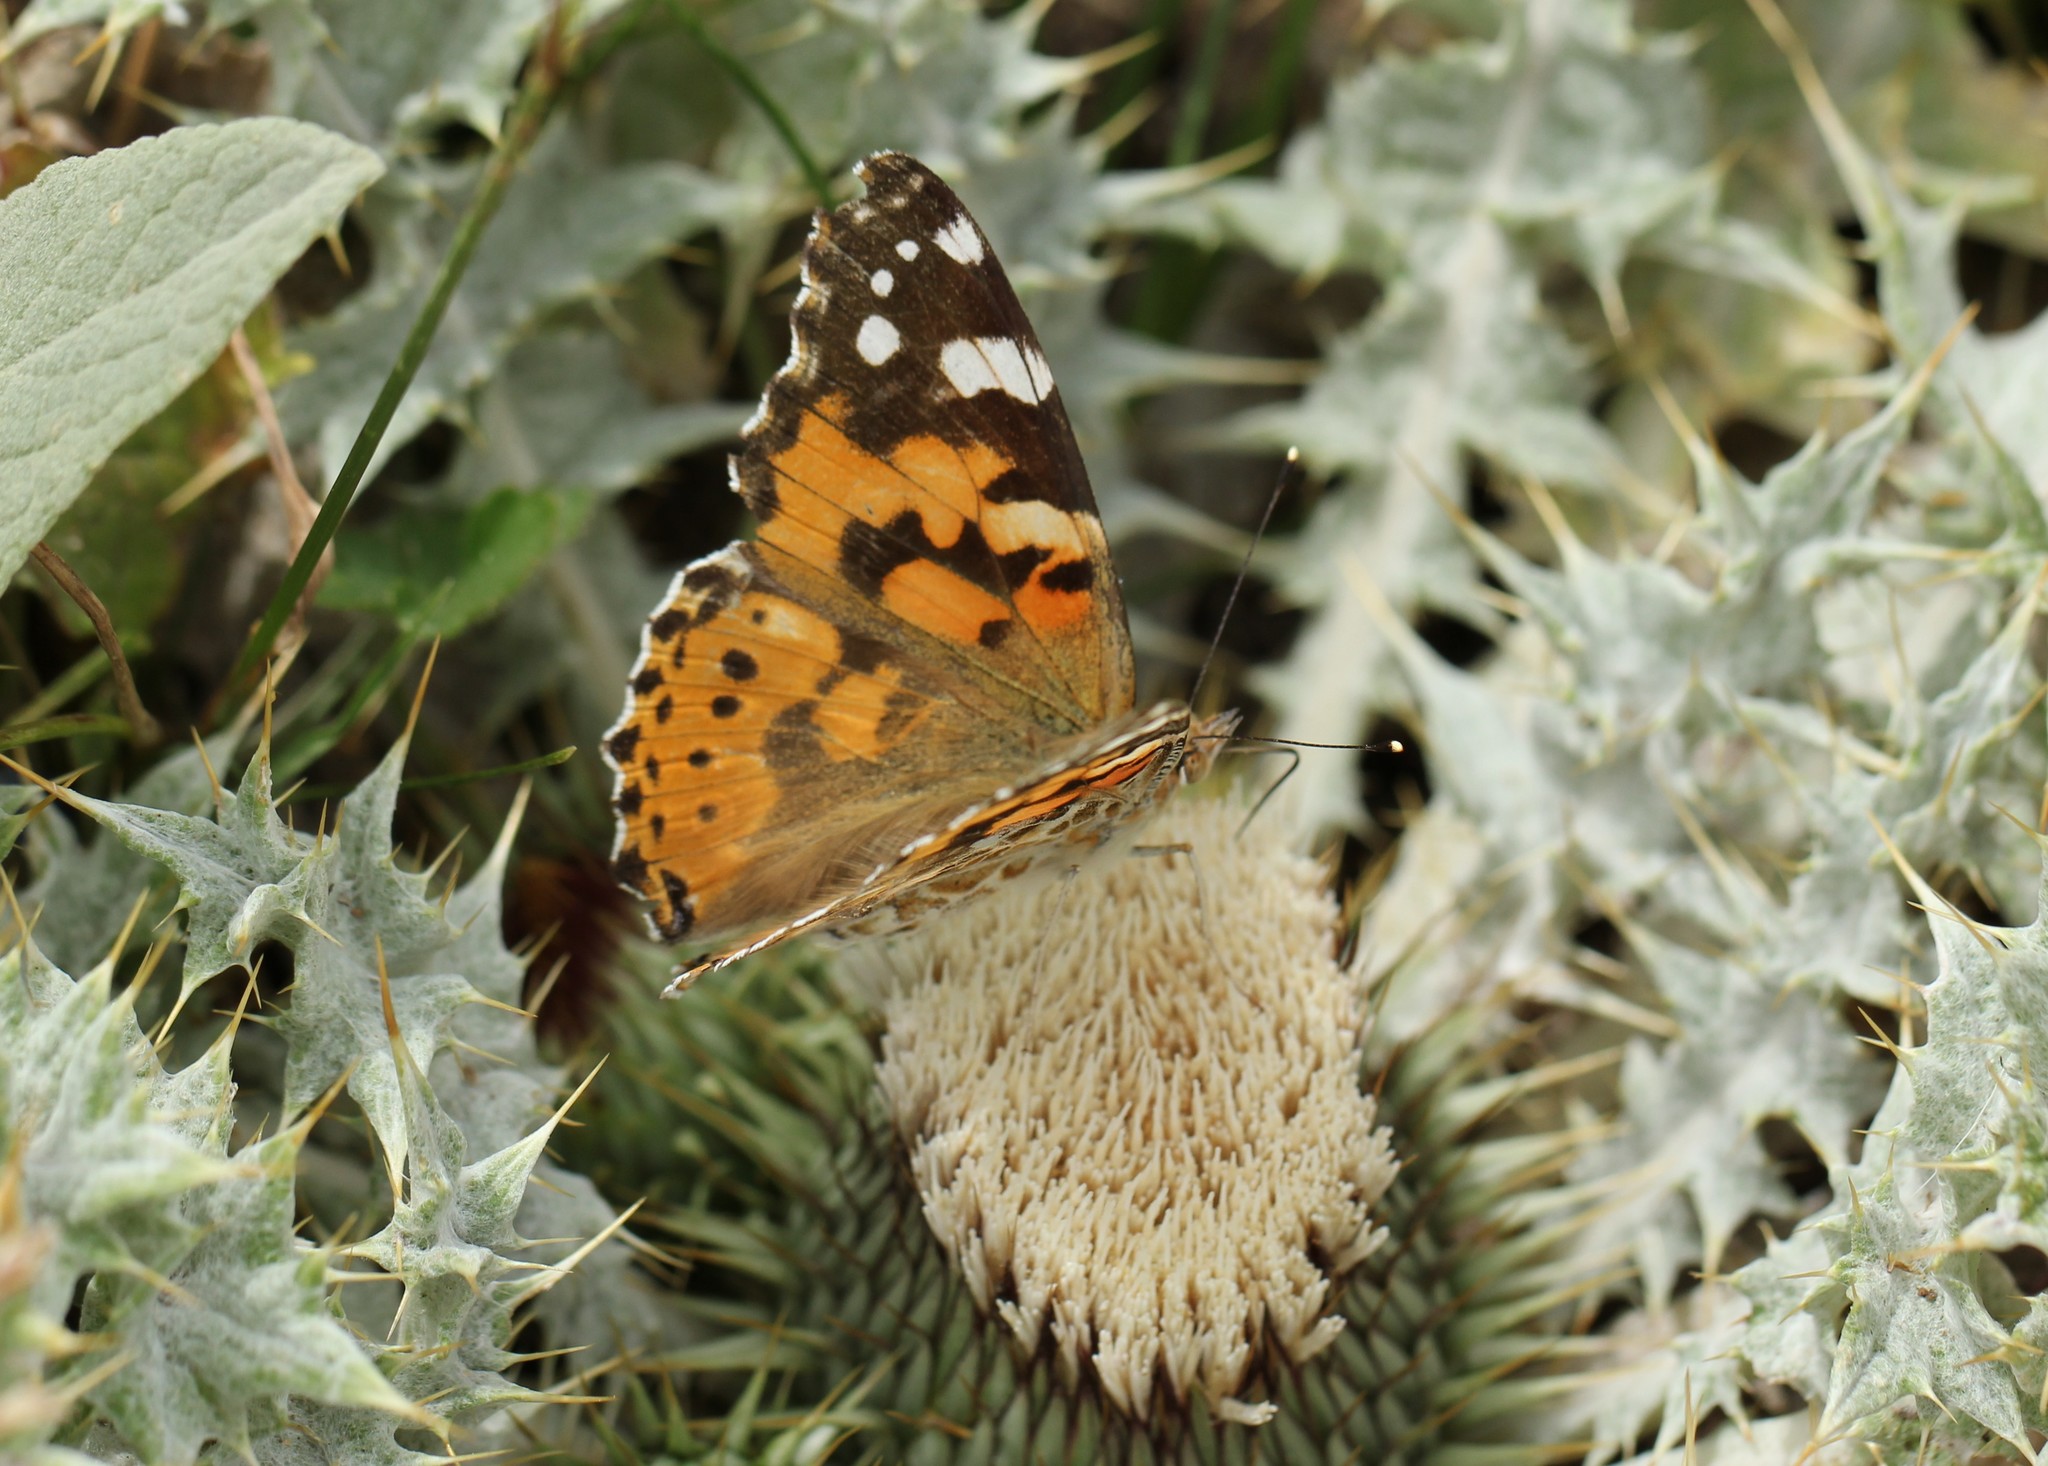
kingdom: Animalia
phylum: Arthropoda
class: Insecta
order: Lepidoptera
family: Nymphalidae
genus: Vanessa
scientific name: Vanessa cardui
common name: Painted lady
